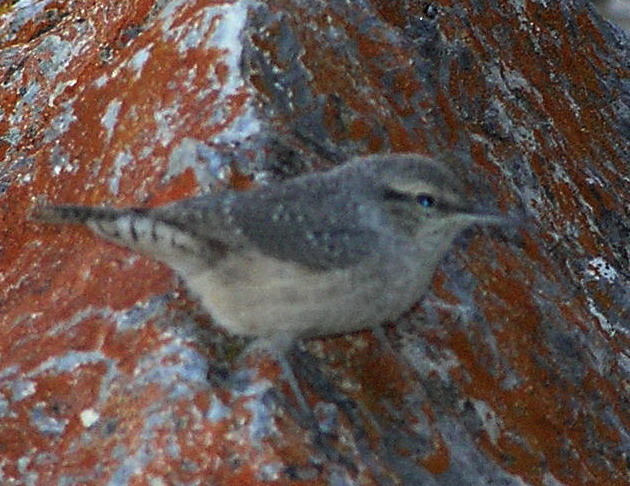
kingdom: Animalia
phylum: Chordata
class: Aves
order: Passeriformes
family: Troglodytidae
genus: Salpinctes
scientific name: Salpinctes obsoletus
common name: Rock wren
